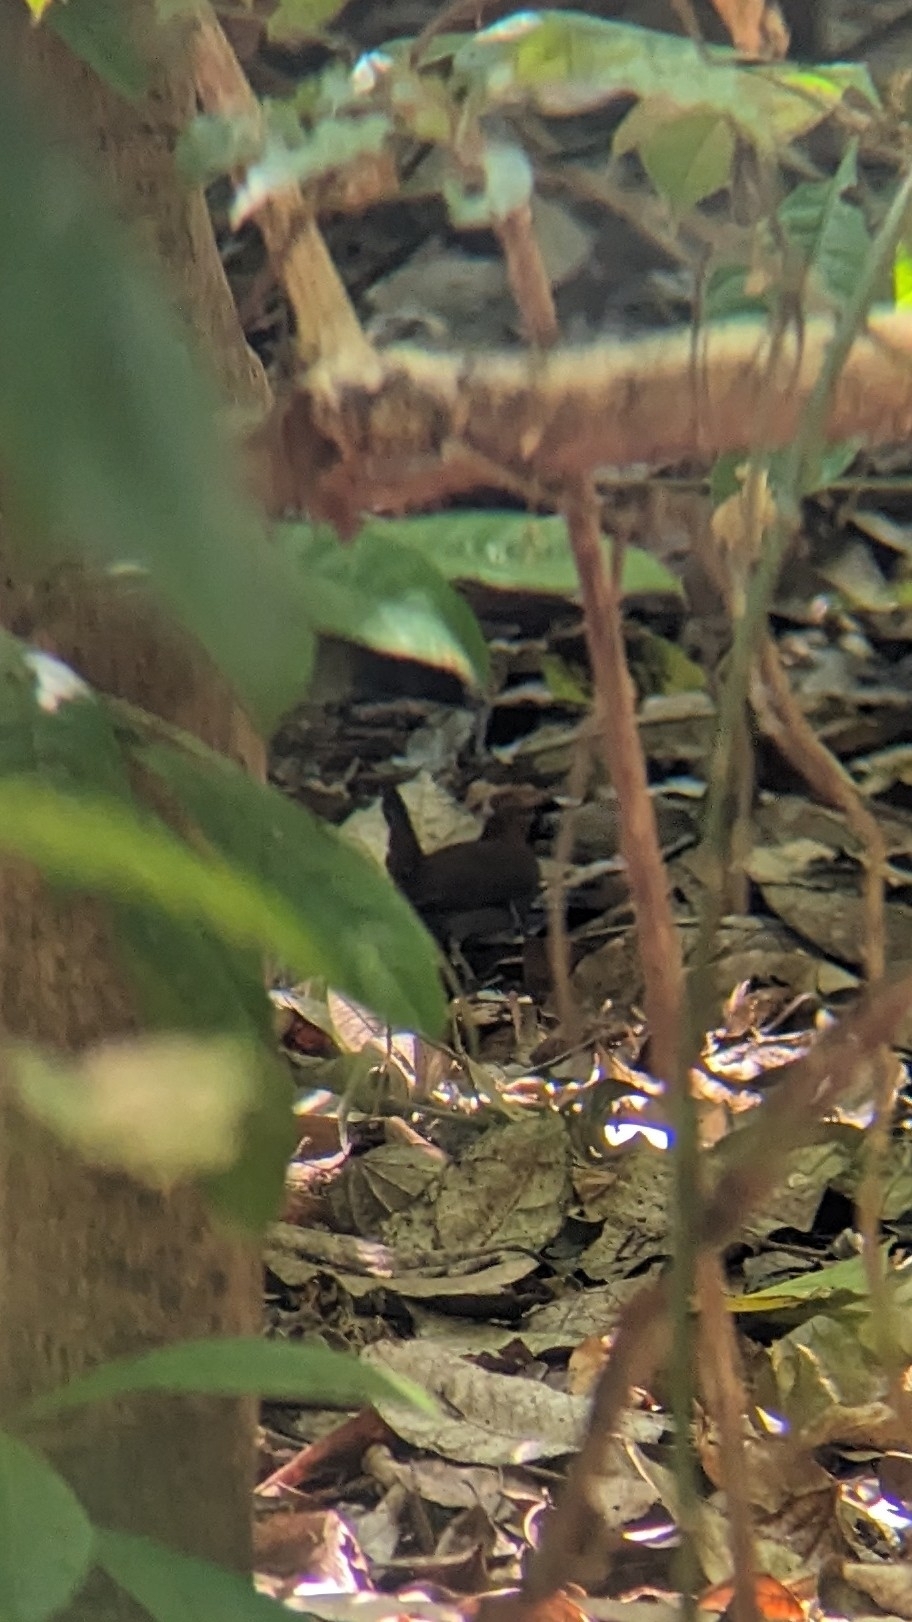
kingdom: Animalia
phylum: Chordata
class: Aves
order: Passeriformes
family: Formicariidae
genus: Formicarius
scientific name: Formicarius analis
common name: Black-faced antthrush
